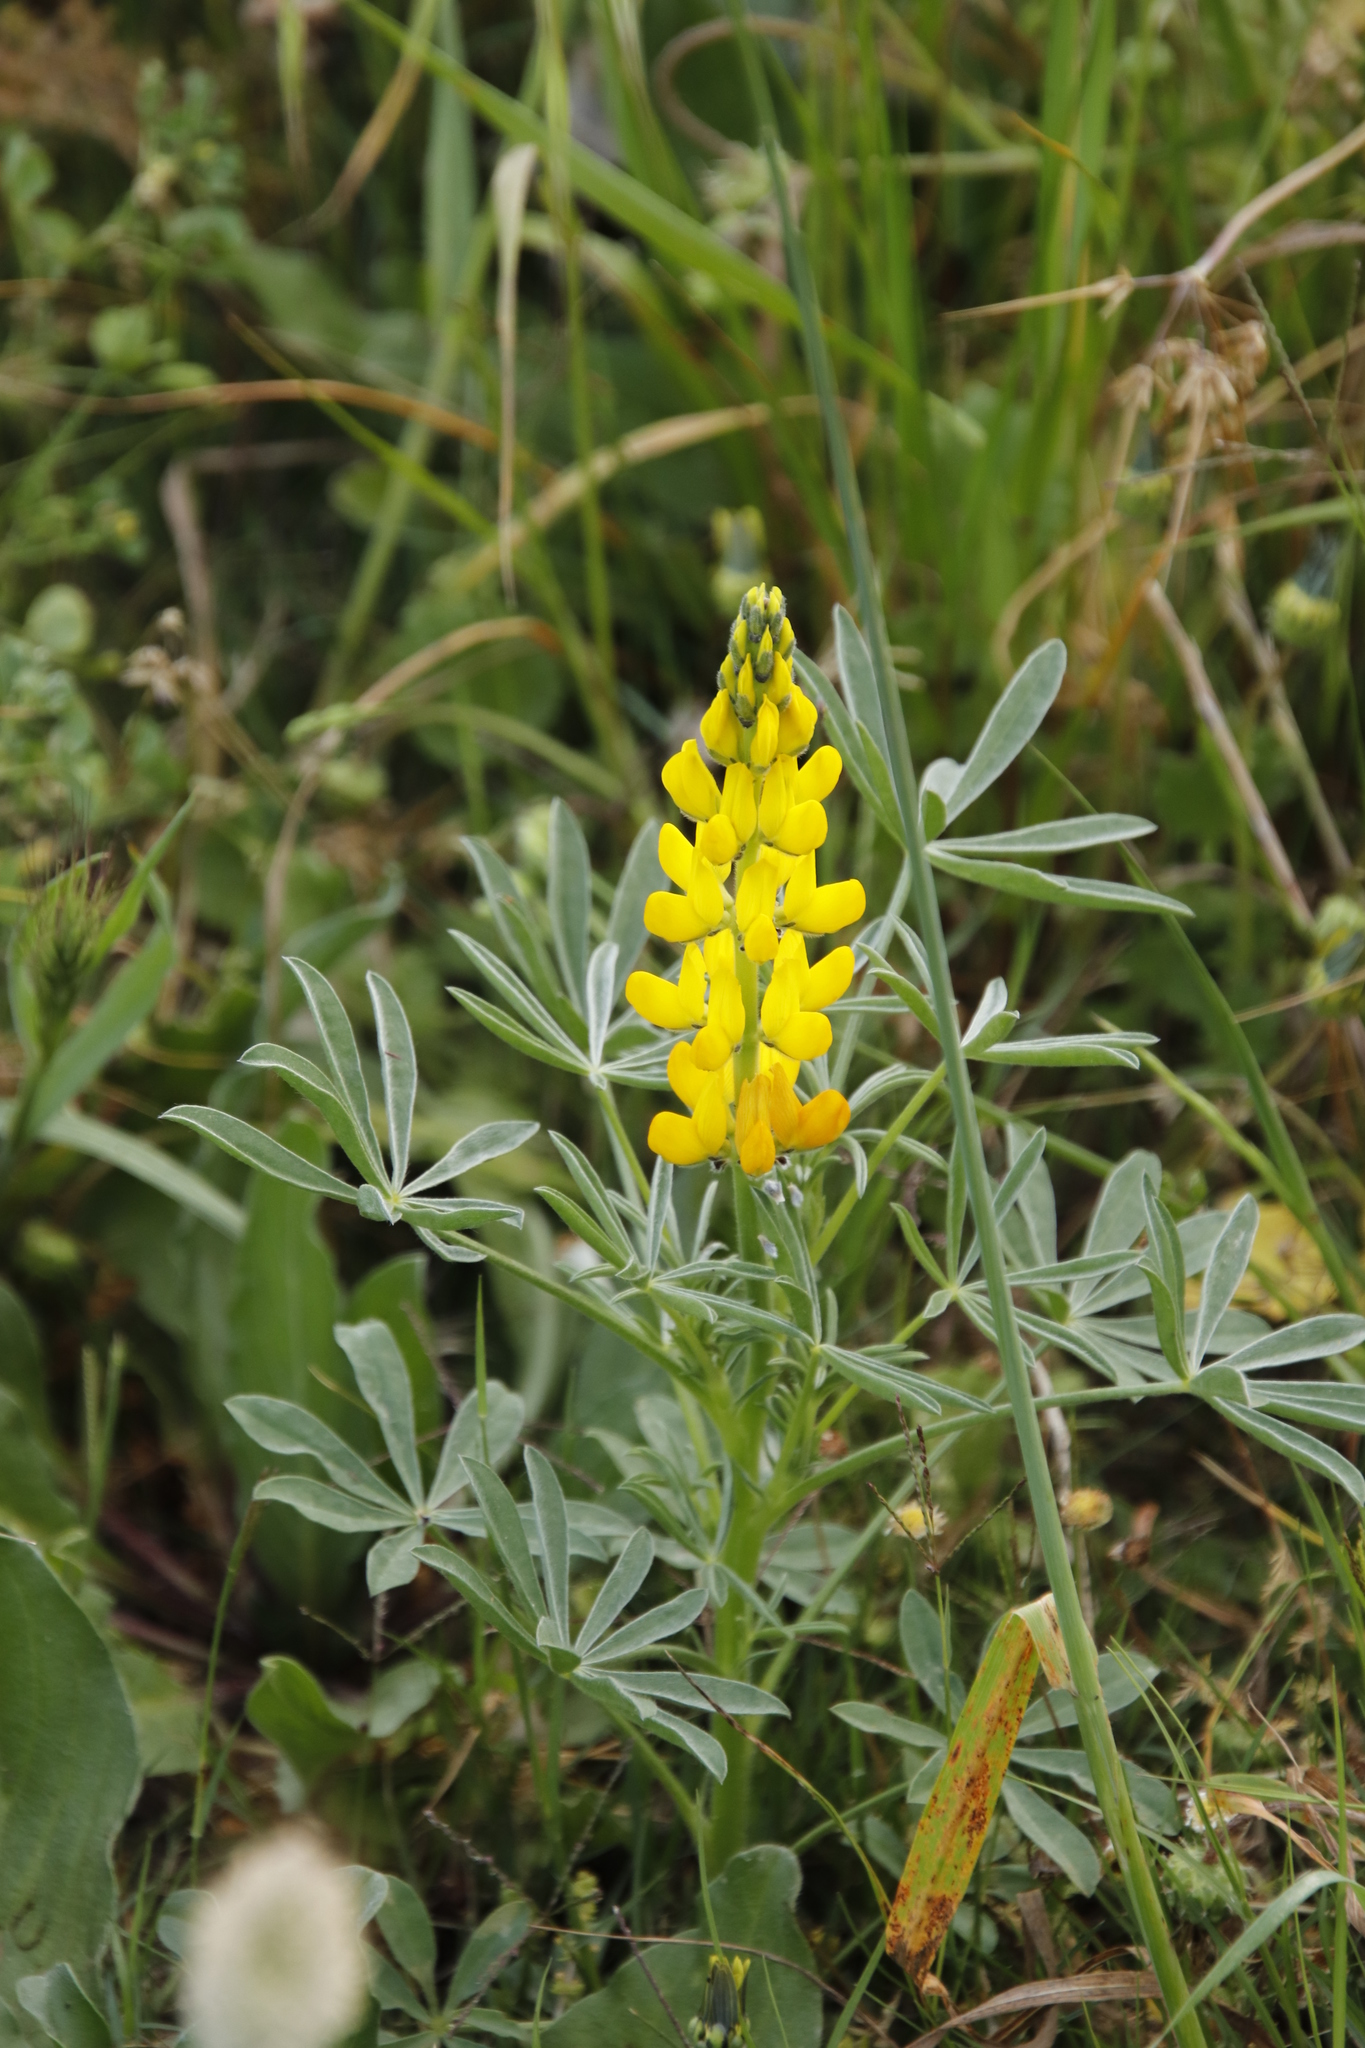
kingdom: Plantae
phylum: Tracheophyta
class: Magnoliopsida
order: Fabales
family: Fabaceae
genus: Lupinus
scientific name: Lupinus luteus
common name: European yellow lupine
